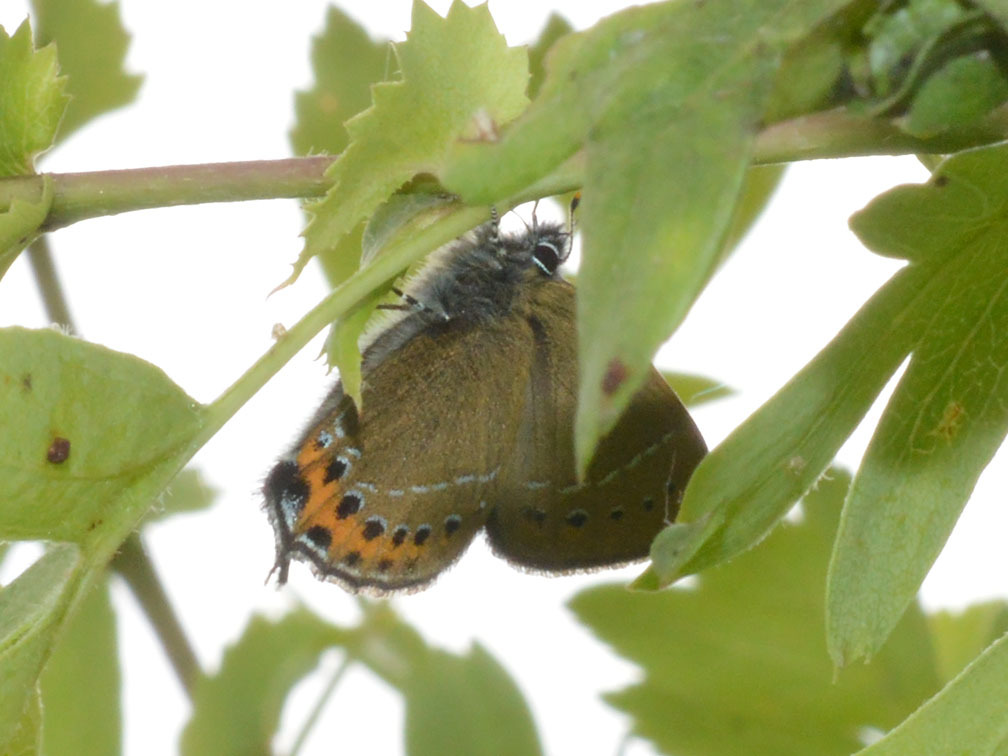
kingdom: Animalia
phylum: Arthropoda
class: Insecta
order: Lepidoptera
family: Lycaenidae
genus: Fixsenia
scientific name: Fixsenia pruni
